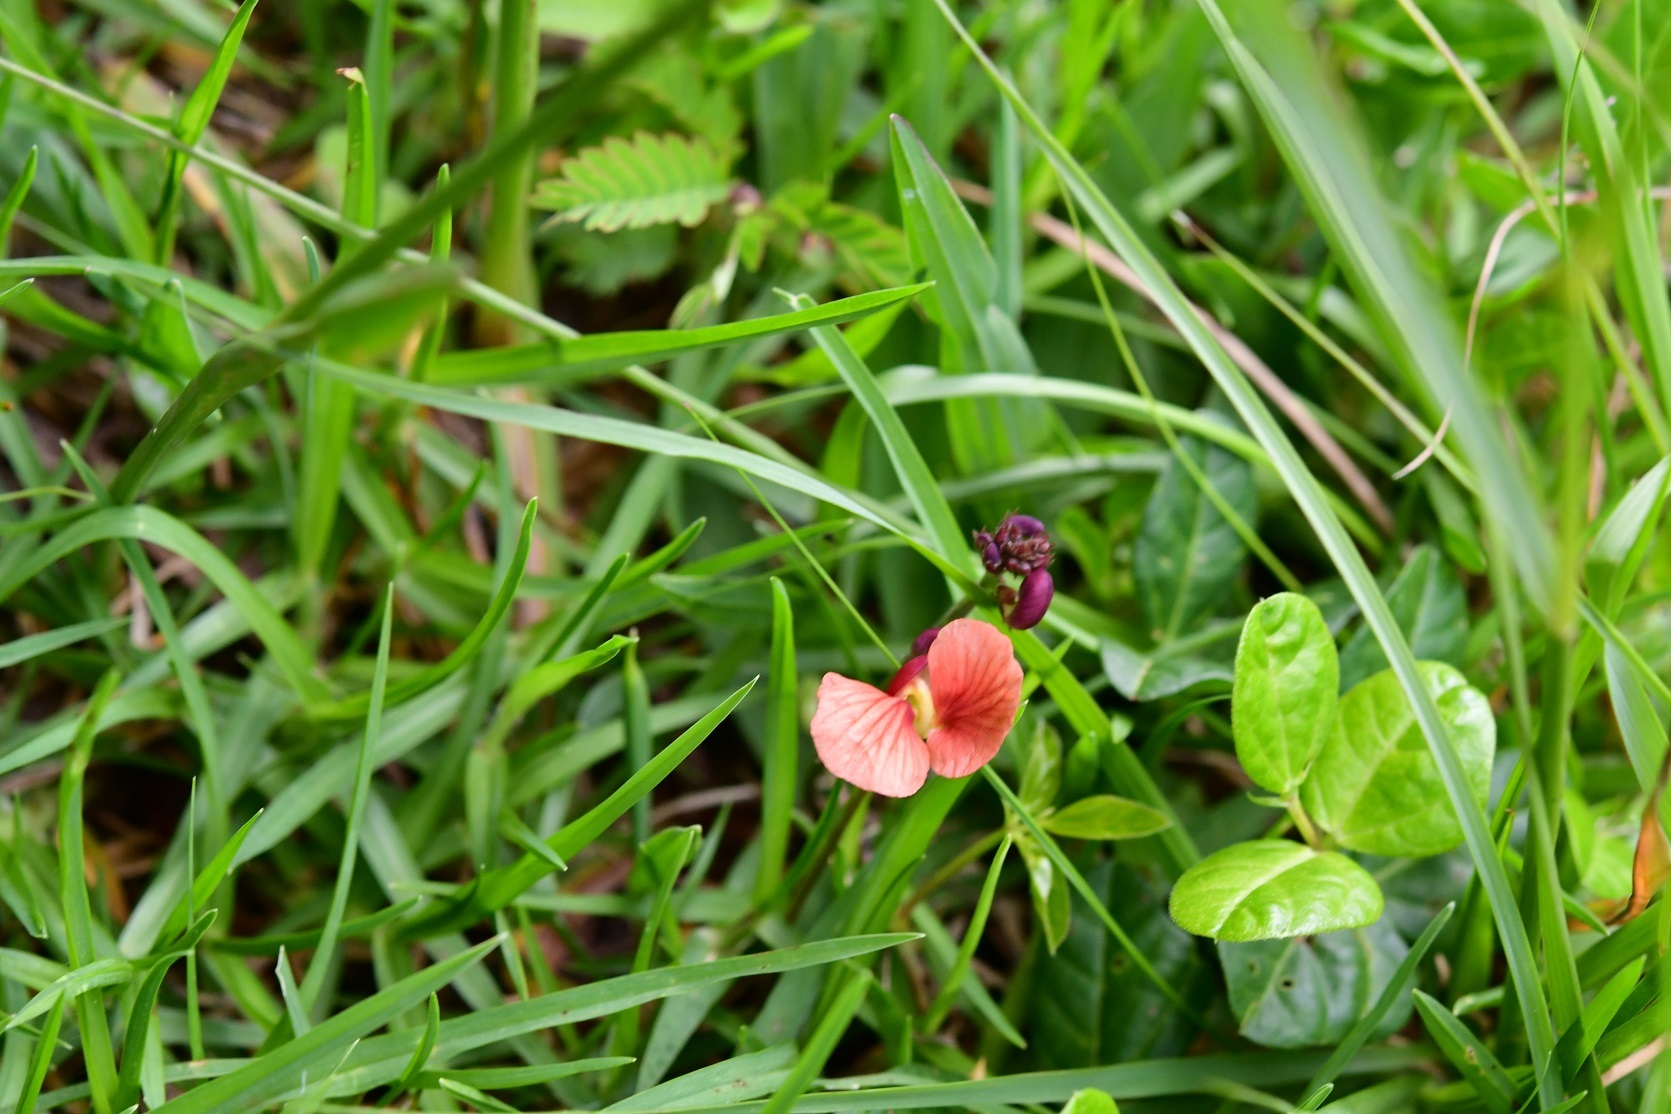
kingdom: Plantae
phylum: Tracheophyta
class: Magnoliopsida
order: Fabales
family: Fabaceae
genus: Macroptilium
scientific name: Macroptilium gibbosifolium
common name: Variableleaf bushbean
